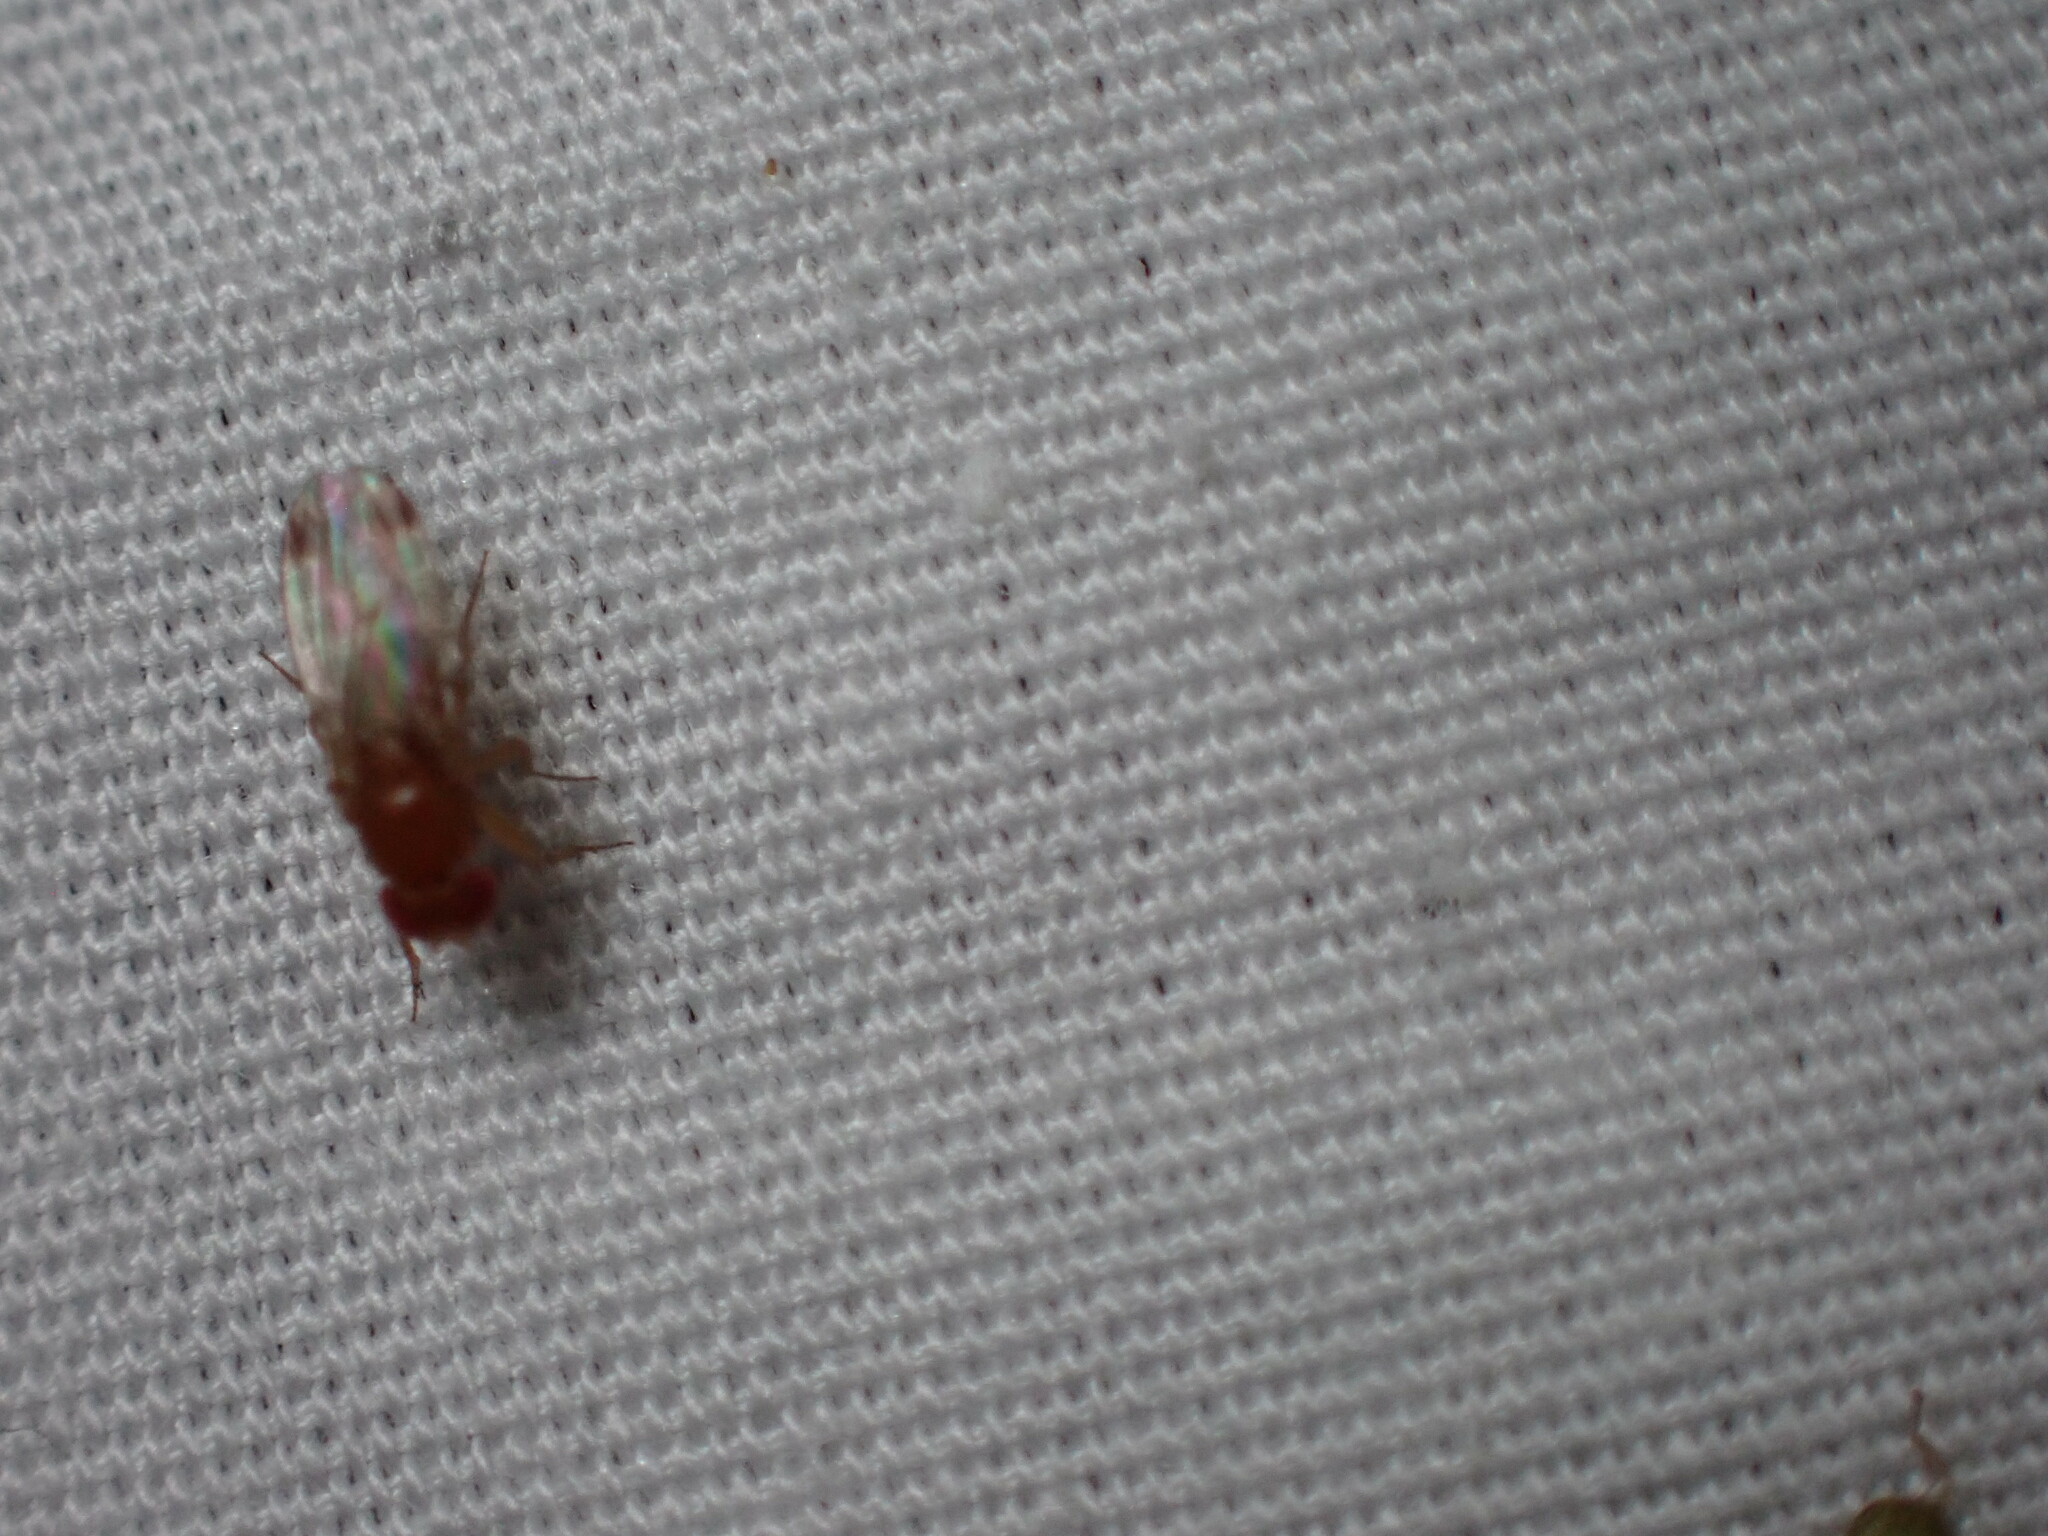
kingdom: Animalia
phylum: Arthropoda
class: Insecta
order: Diptera
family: Drosophilidae
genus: Drosophila
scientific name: Drosophila suzukii
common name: Spotted-wing drosophila
